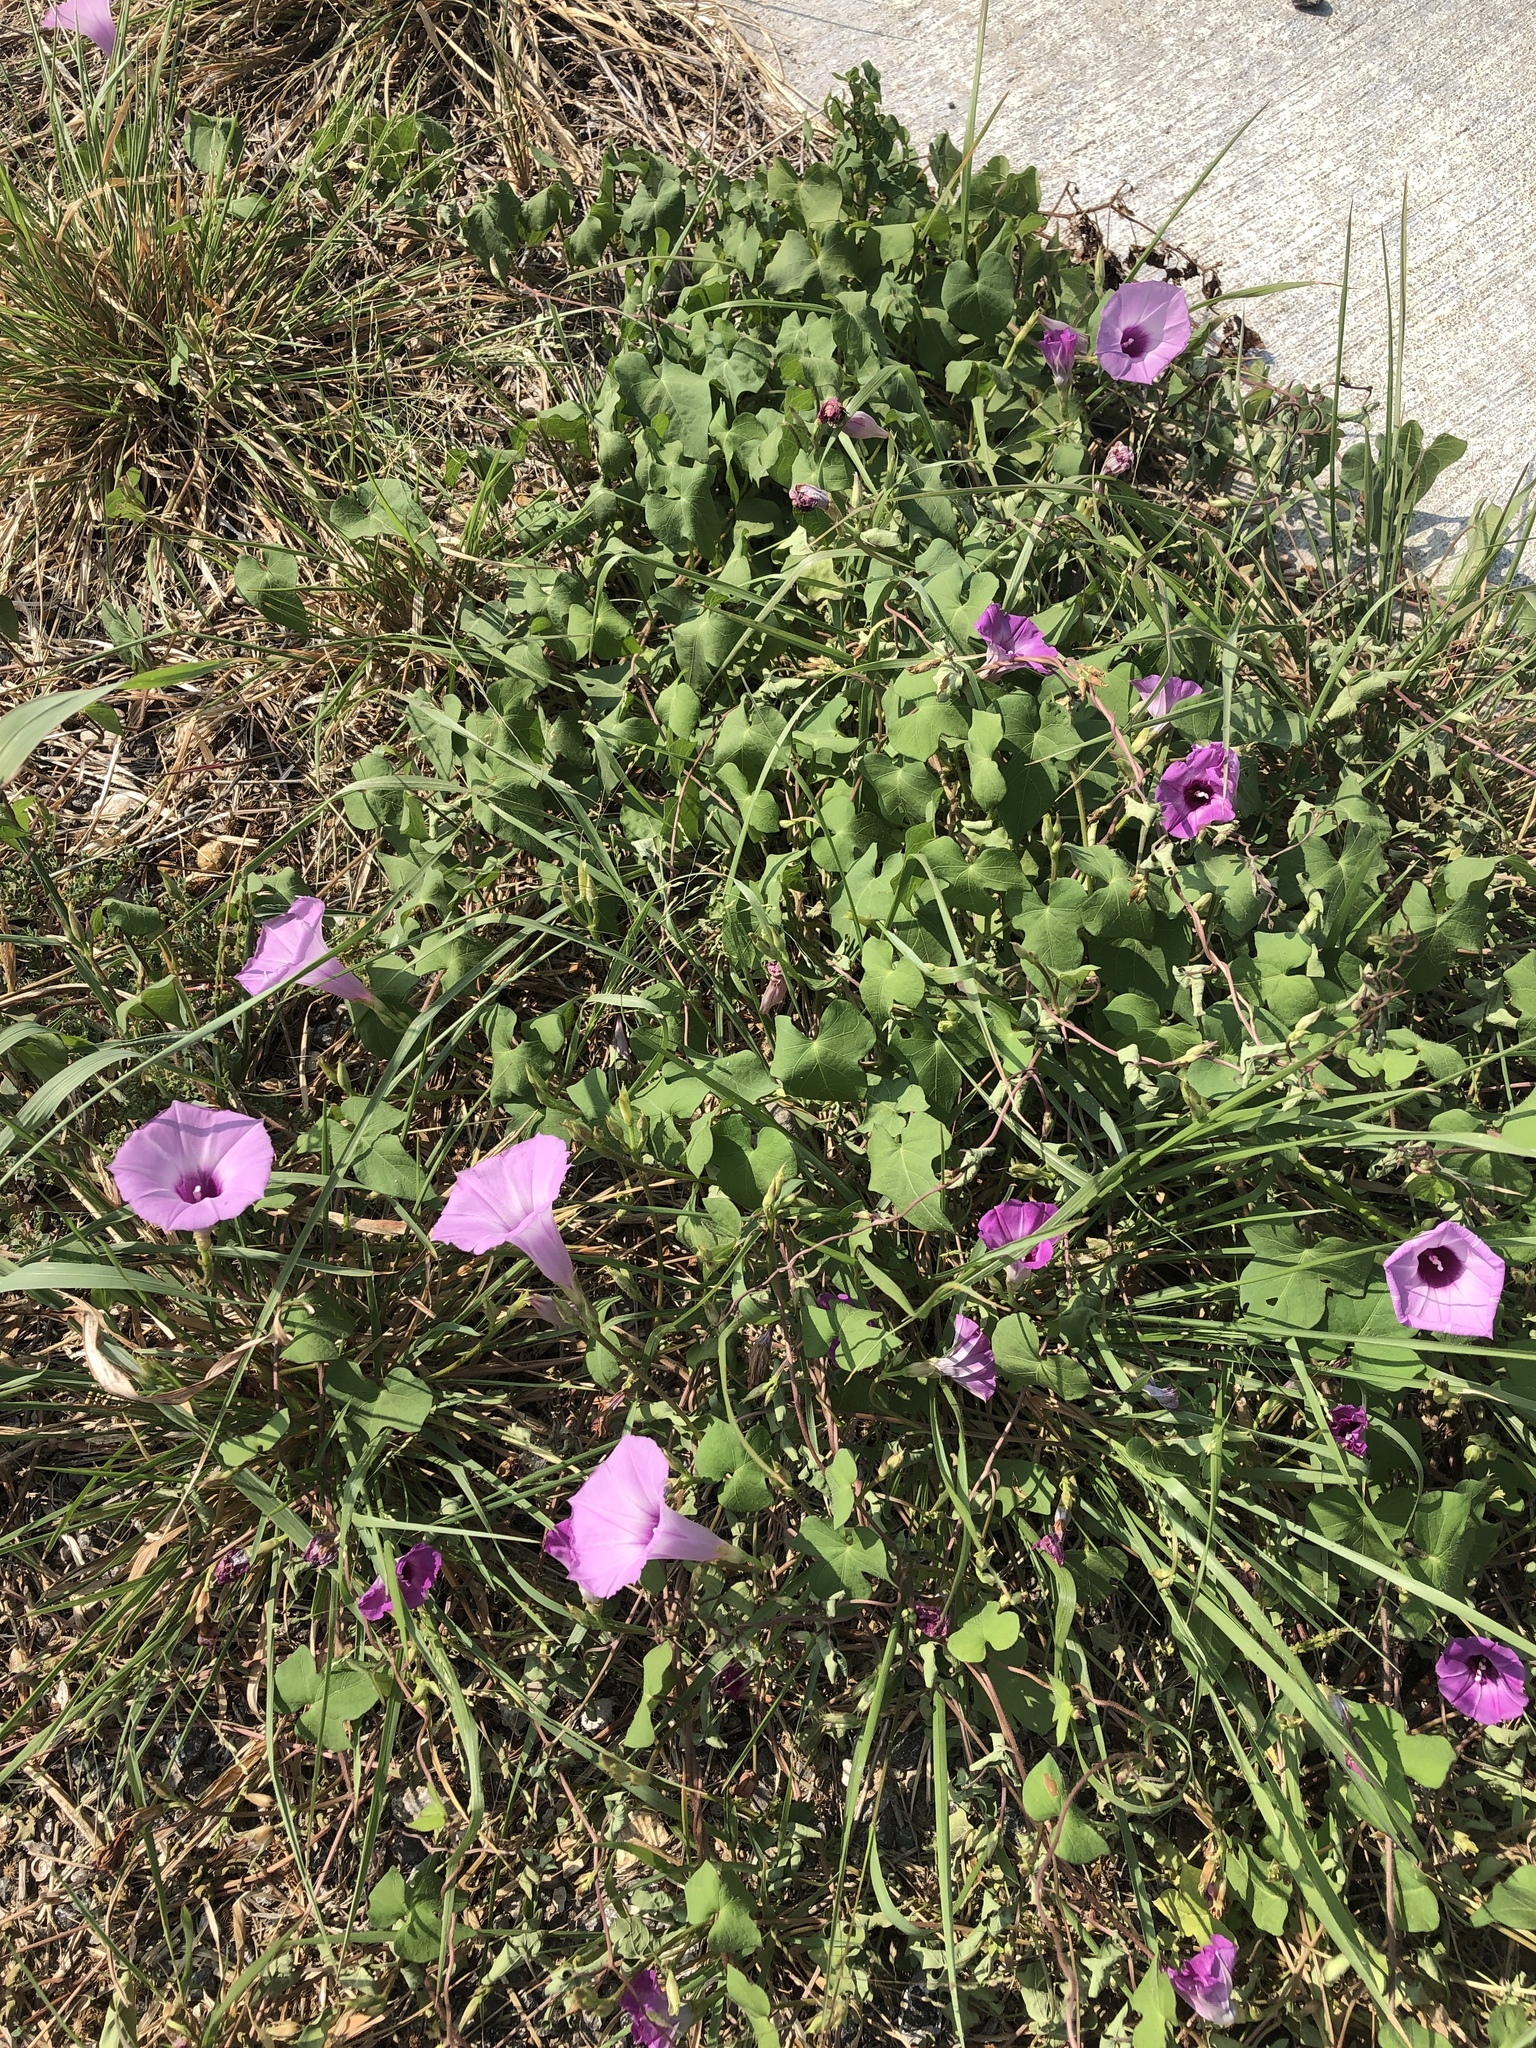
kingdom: Plantae
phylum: Tracheophyta
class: Magnoliopsida
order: Solanales
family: Convolvulaceae
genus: Ipomoea
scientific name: Ipomoea cordatotriloba
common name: Cotton morning glory
